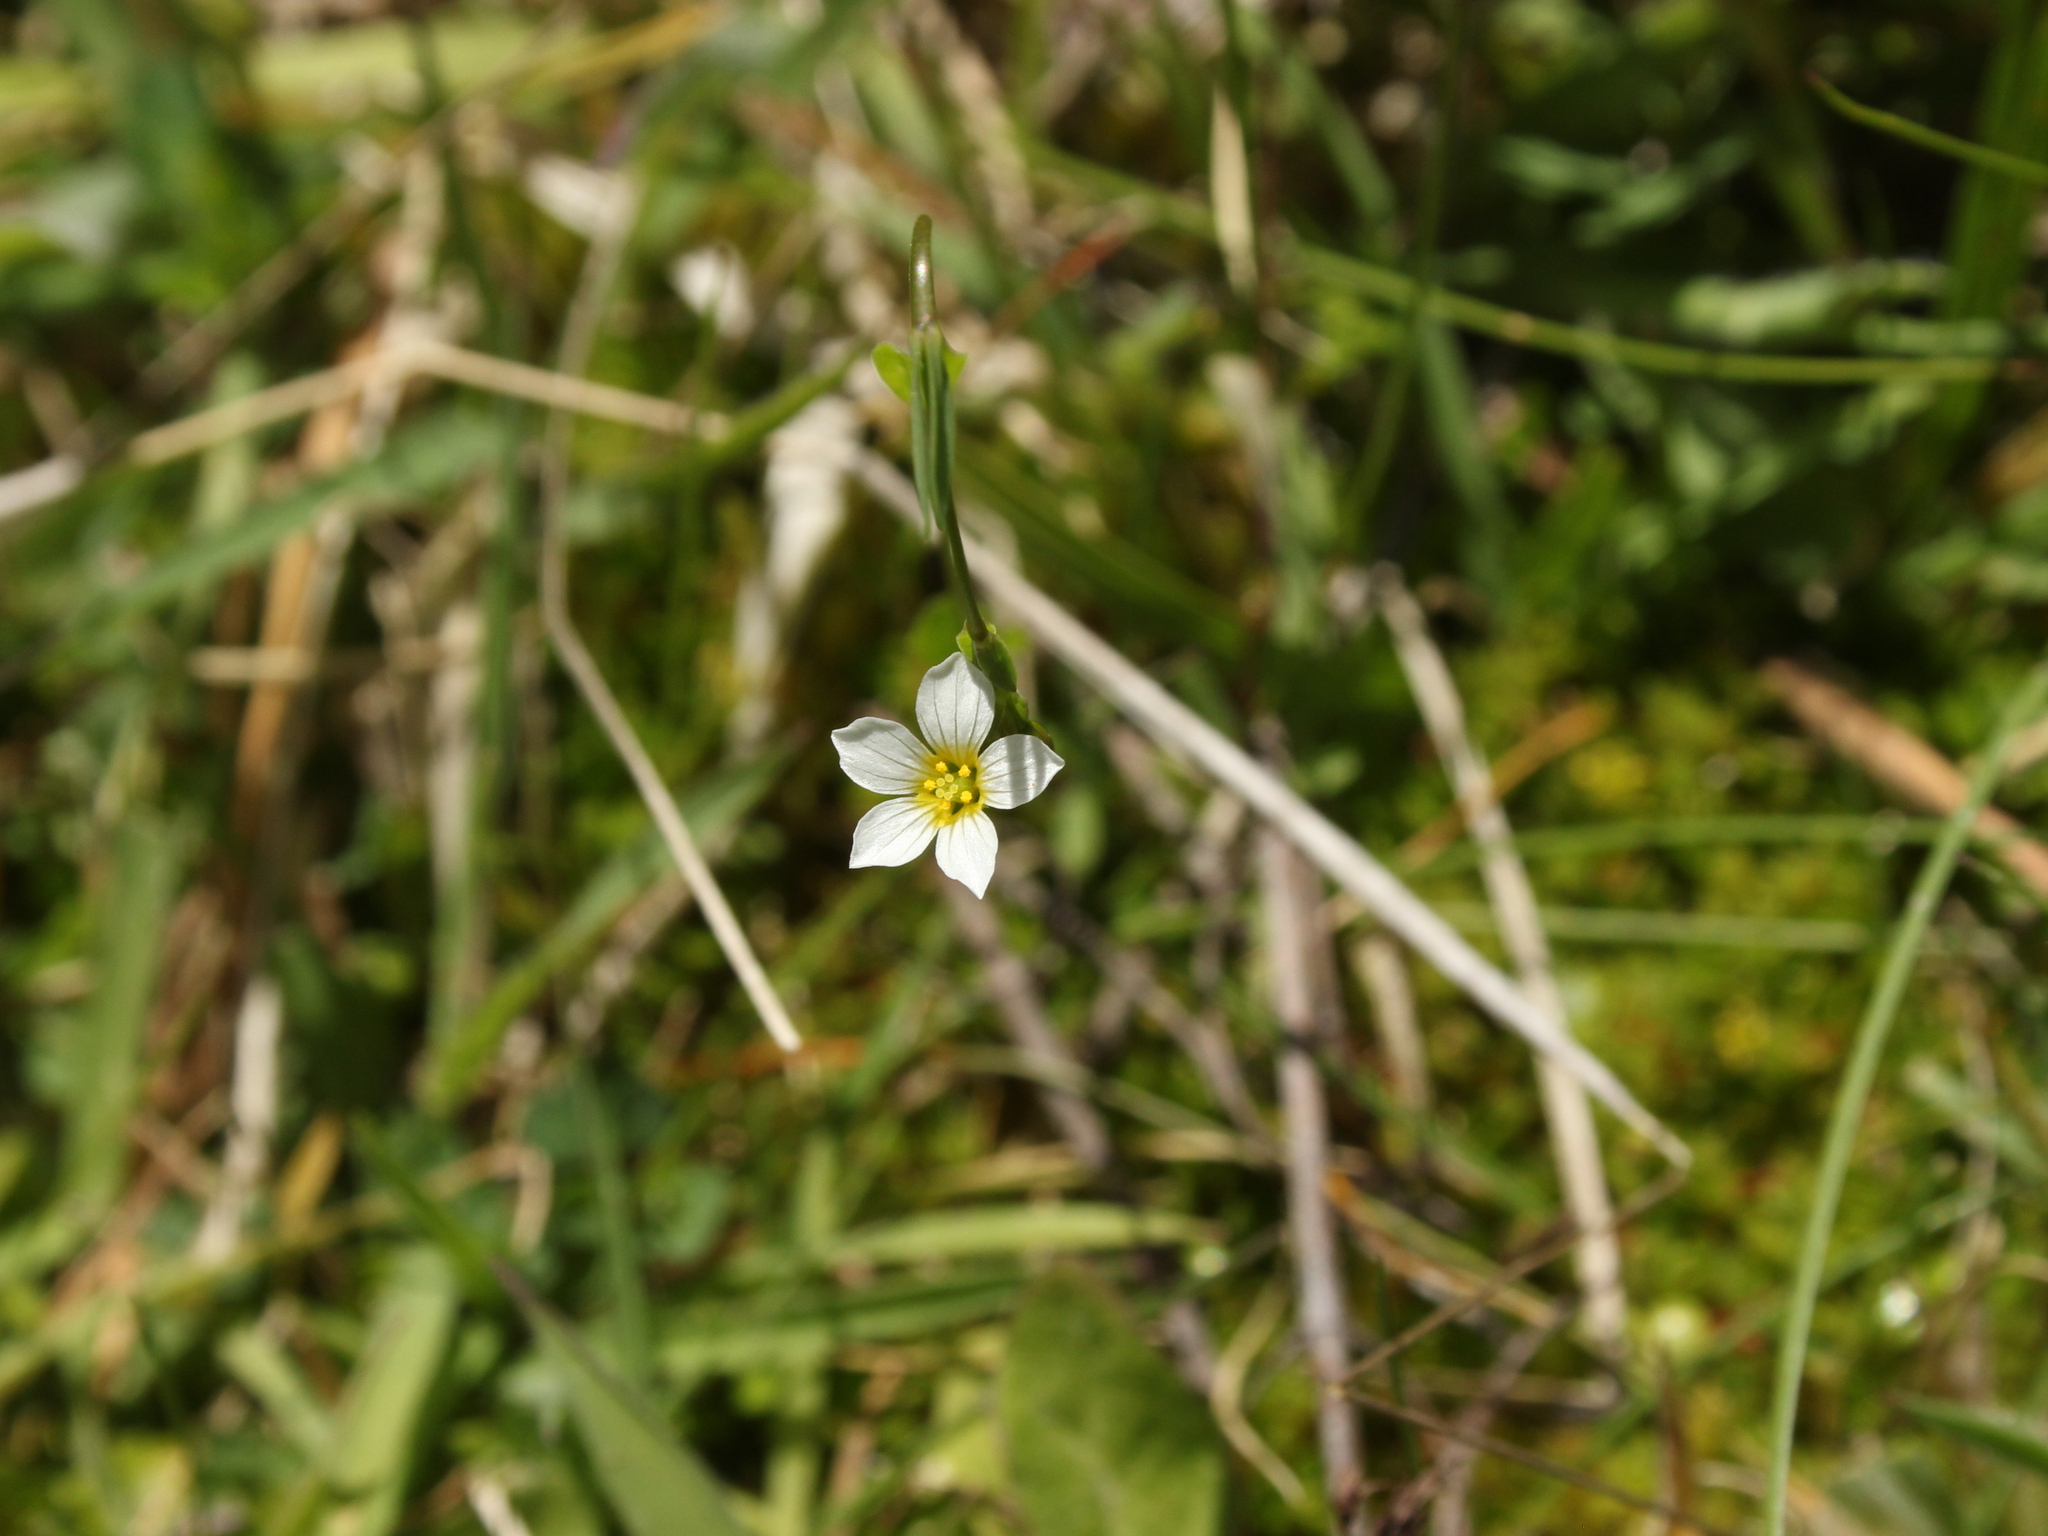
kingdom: Plantae
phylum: Tracheophyta
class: Magnoliopsida
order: Malpighiales
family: Linaceae
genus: Linum
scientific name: Linum catharticum
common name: Fairy flax
